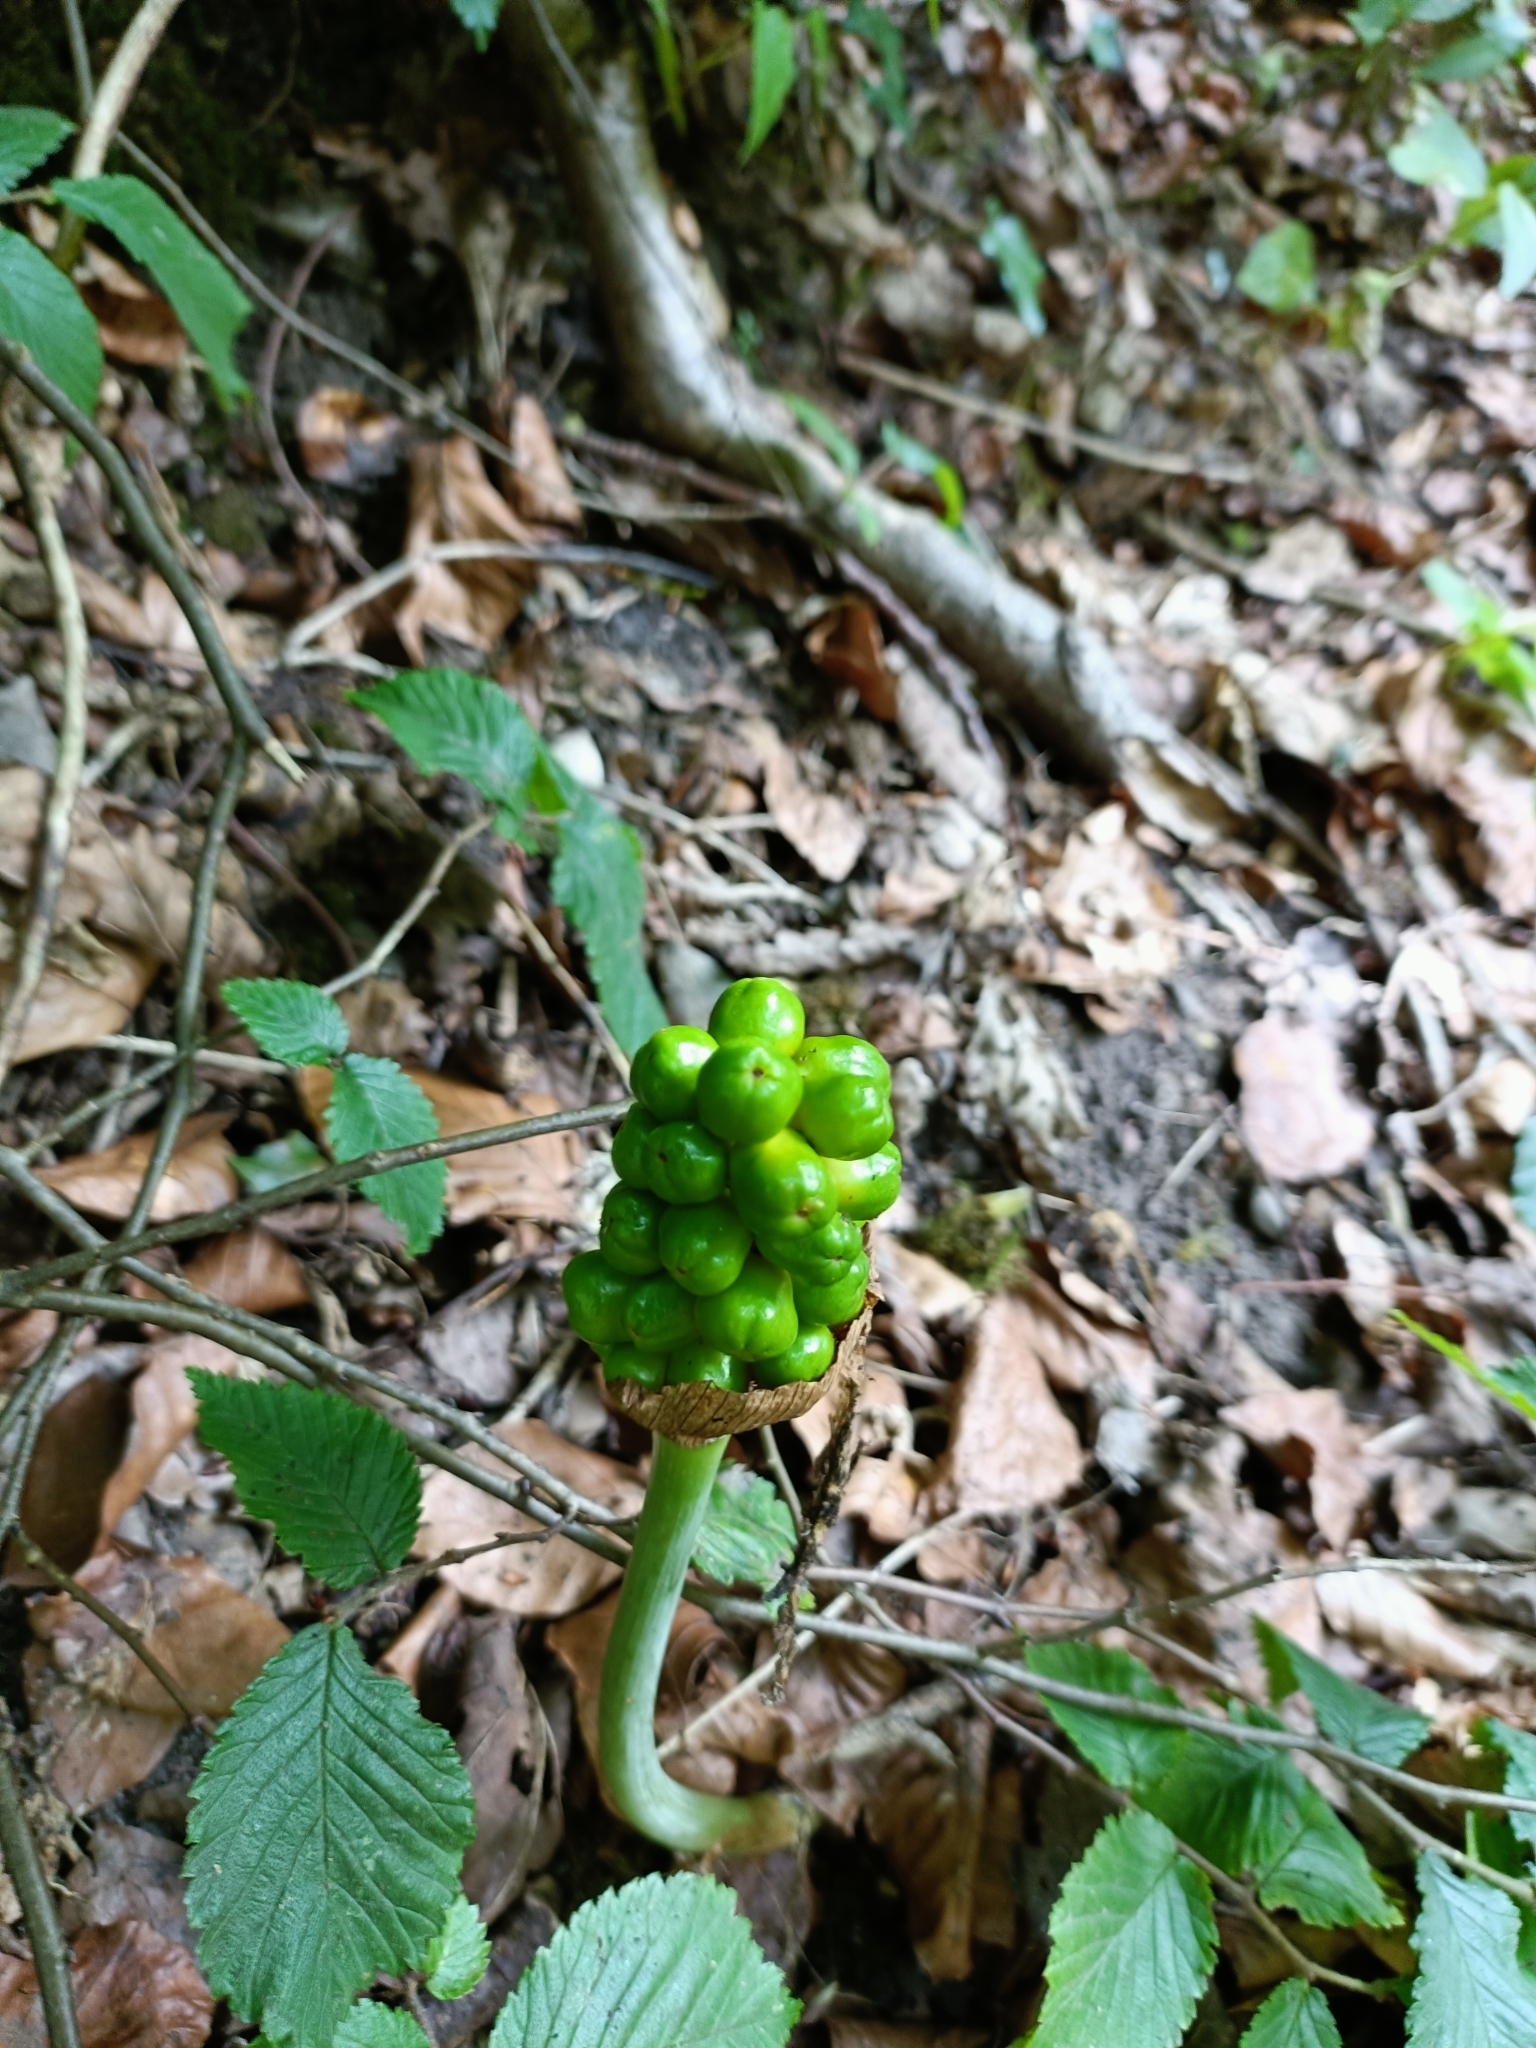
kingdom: Plantae
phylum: Tracheophyta
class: Liliopsida
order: Alismatales
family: Araceae
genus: Arum
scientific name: Arum maculatum
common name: Lords-and-ladies
